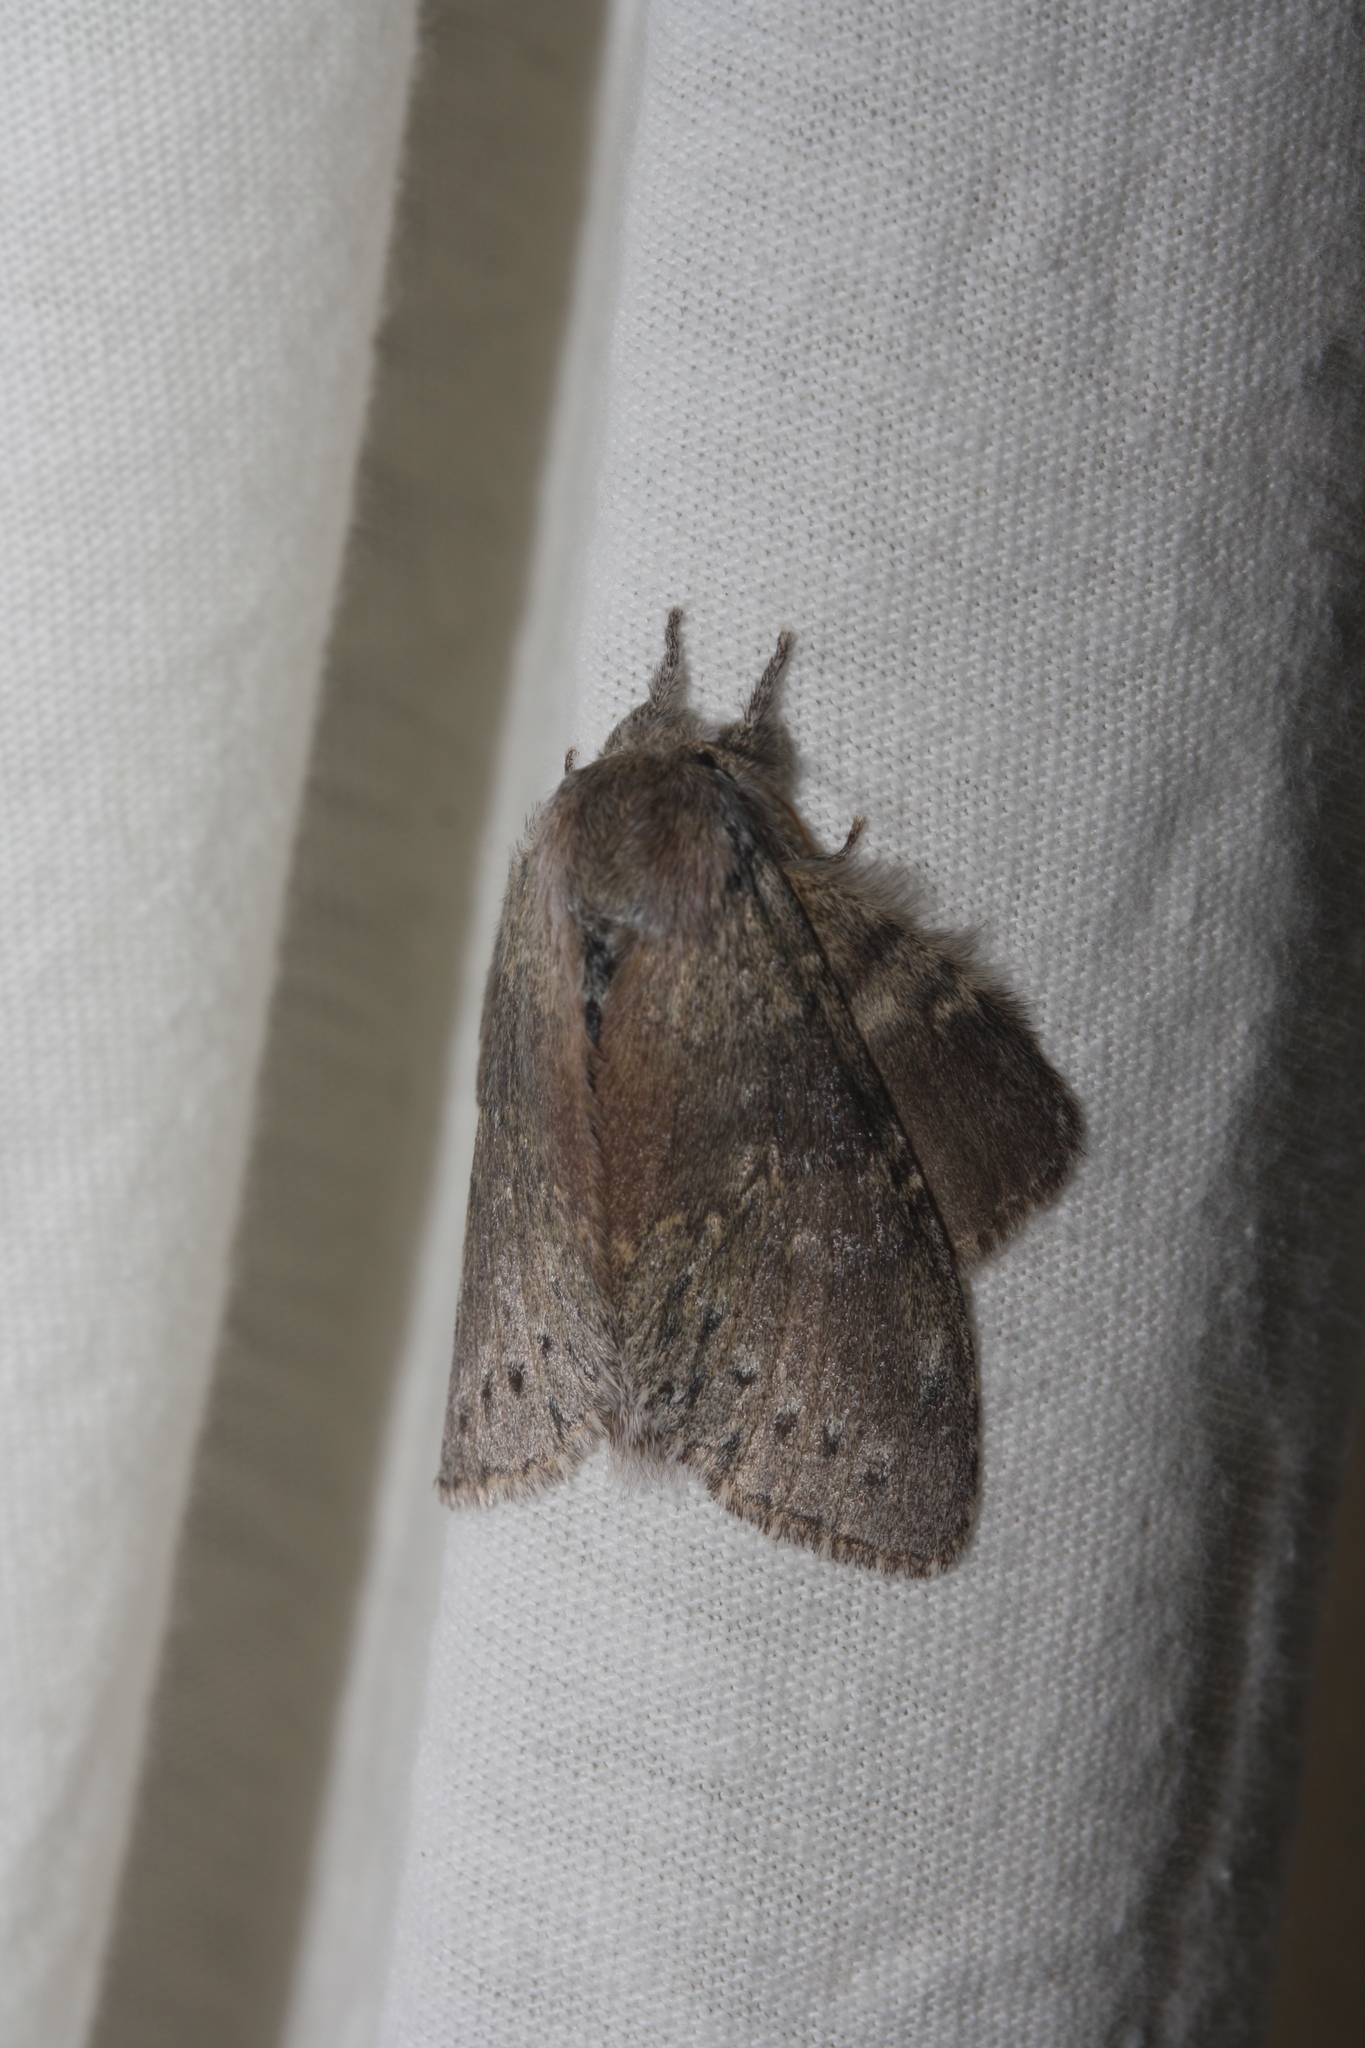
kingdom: Animalia
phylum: Arthropoda
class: Insecta
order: Lepidoptera
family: Notodontidae
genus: Stauropus
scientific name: Stauropus fagi
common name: Lobster moth
